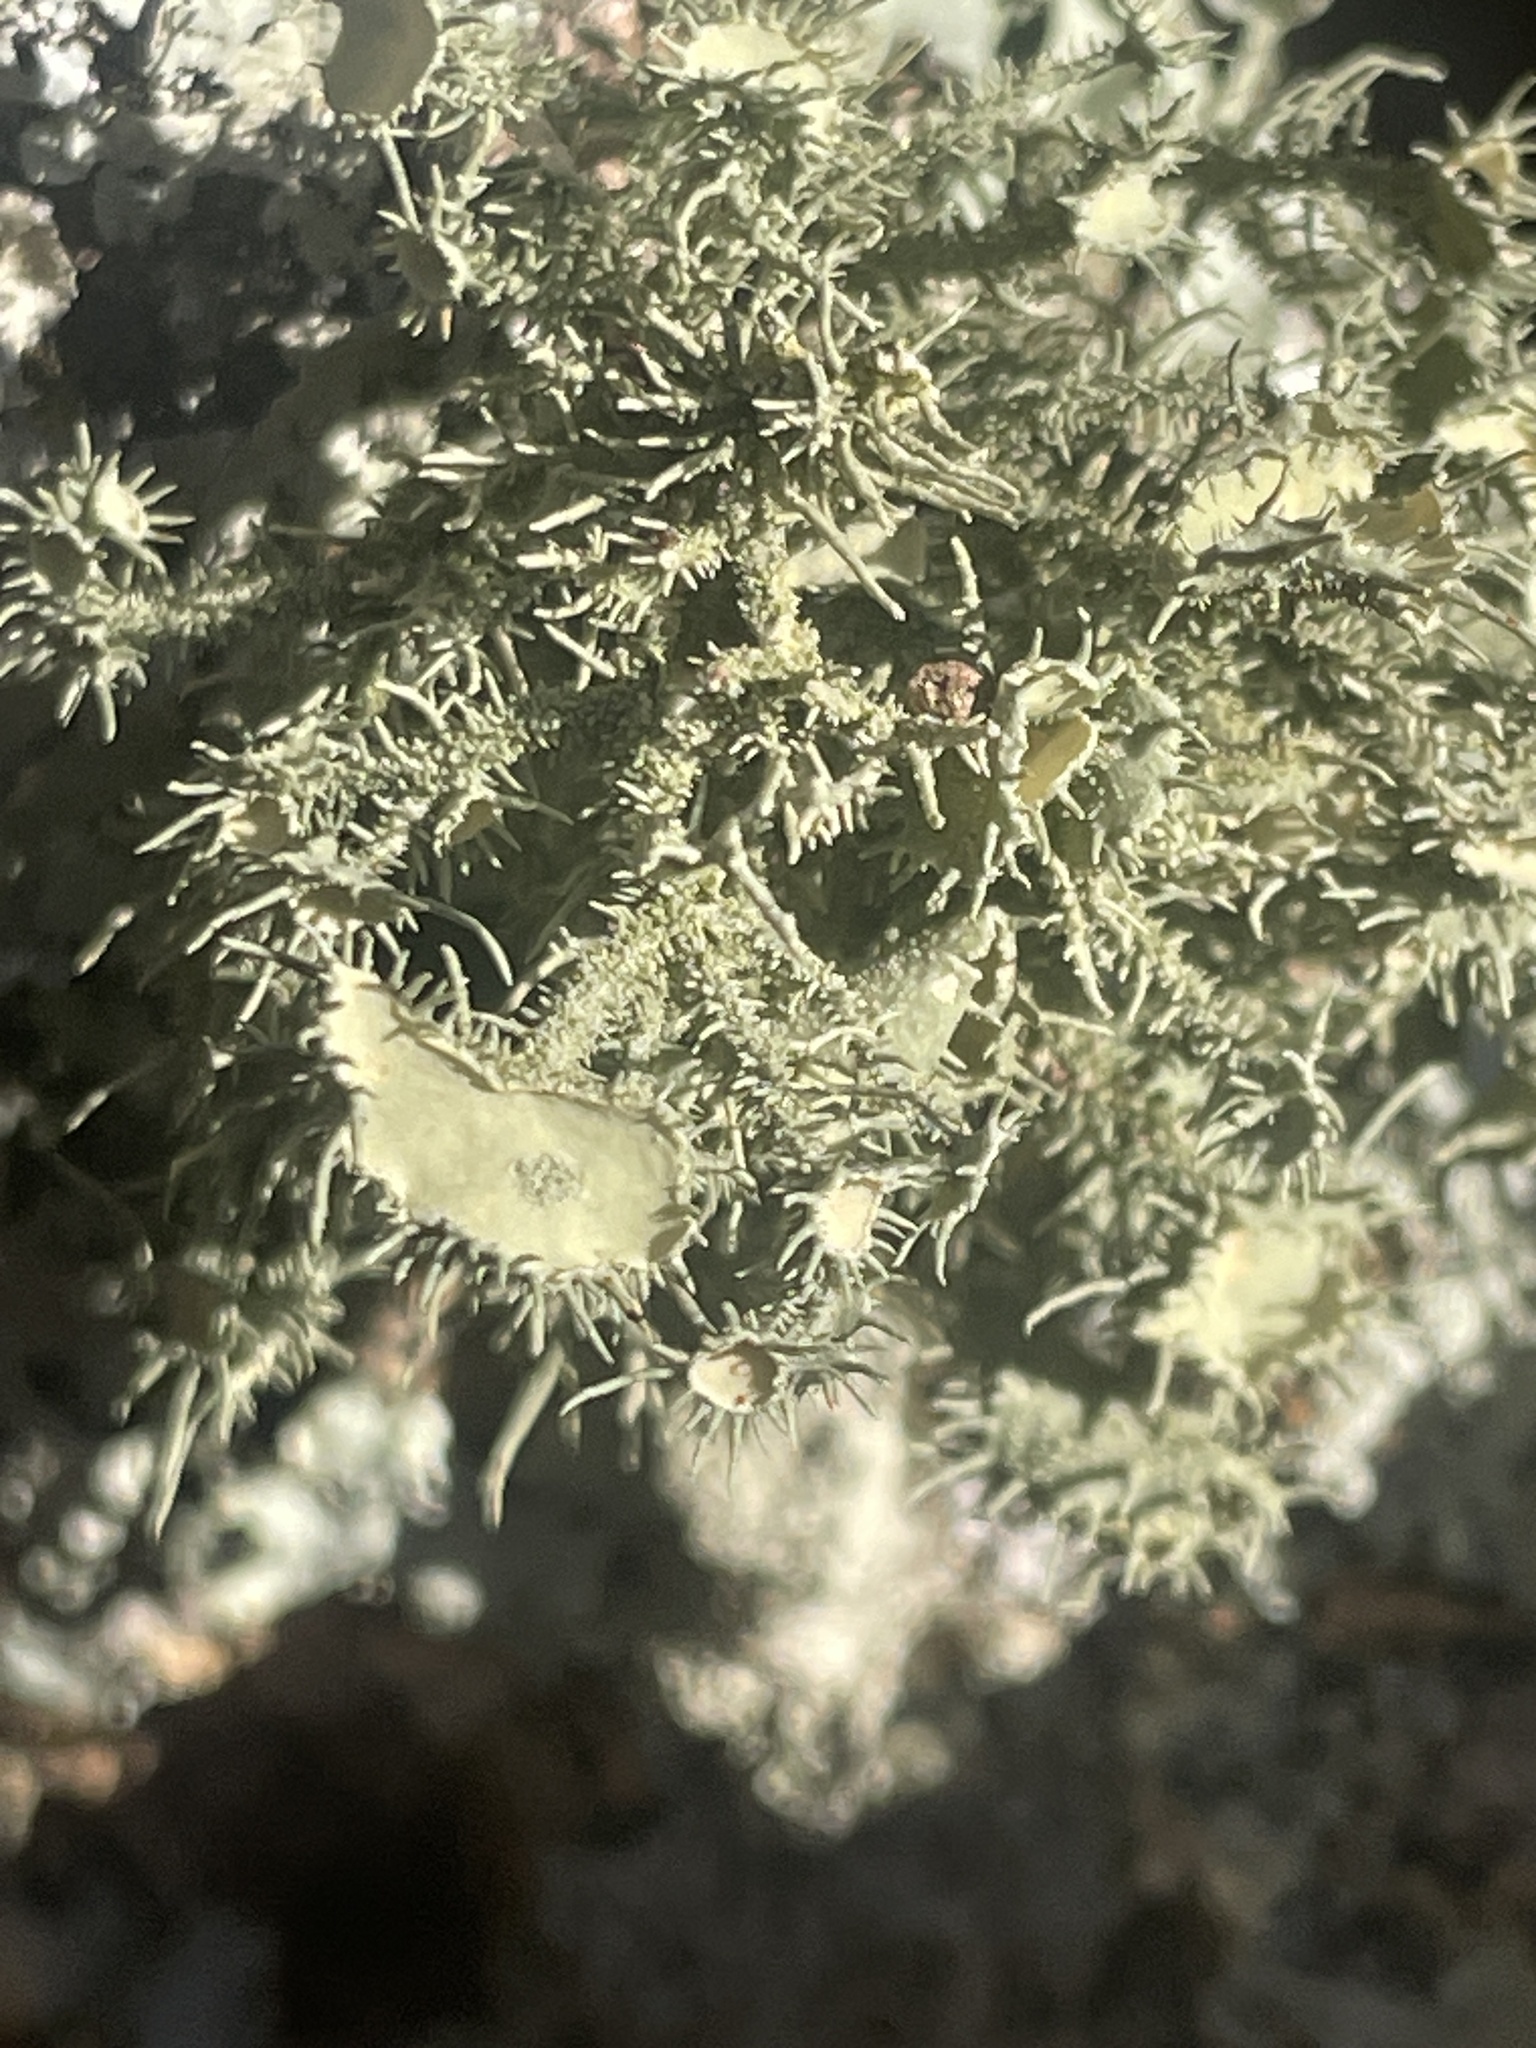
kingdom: Fungi
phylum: Ascomycota
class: Lecanoromycetes
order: Lecanorales
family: Parmeliaceae
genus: Usnea
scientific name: Usnea strigosa
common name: Bushy beard lichen
